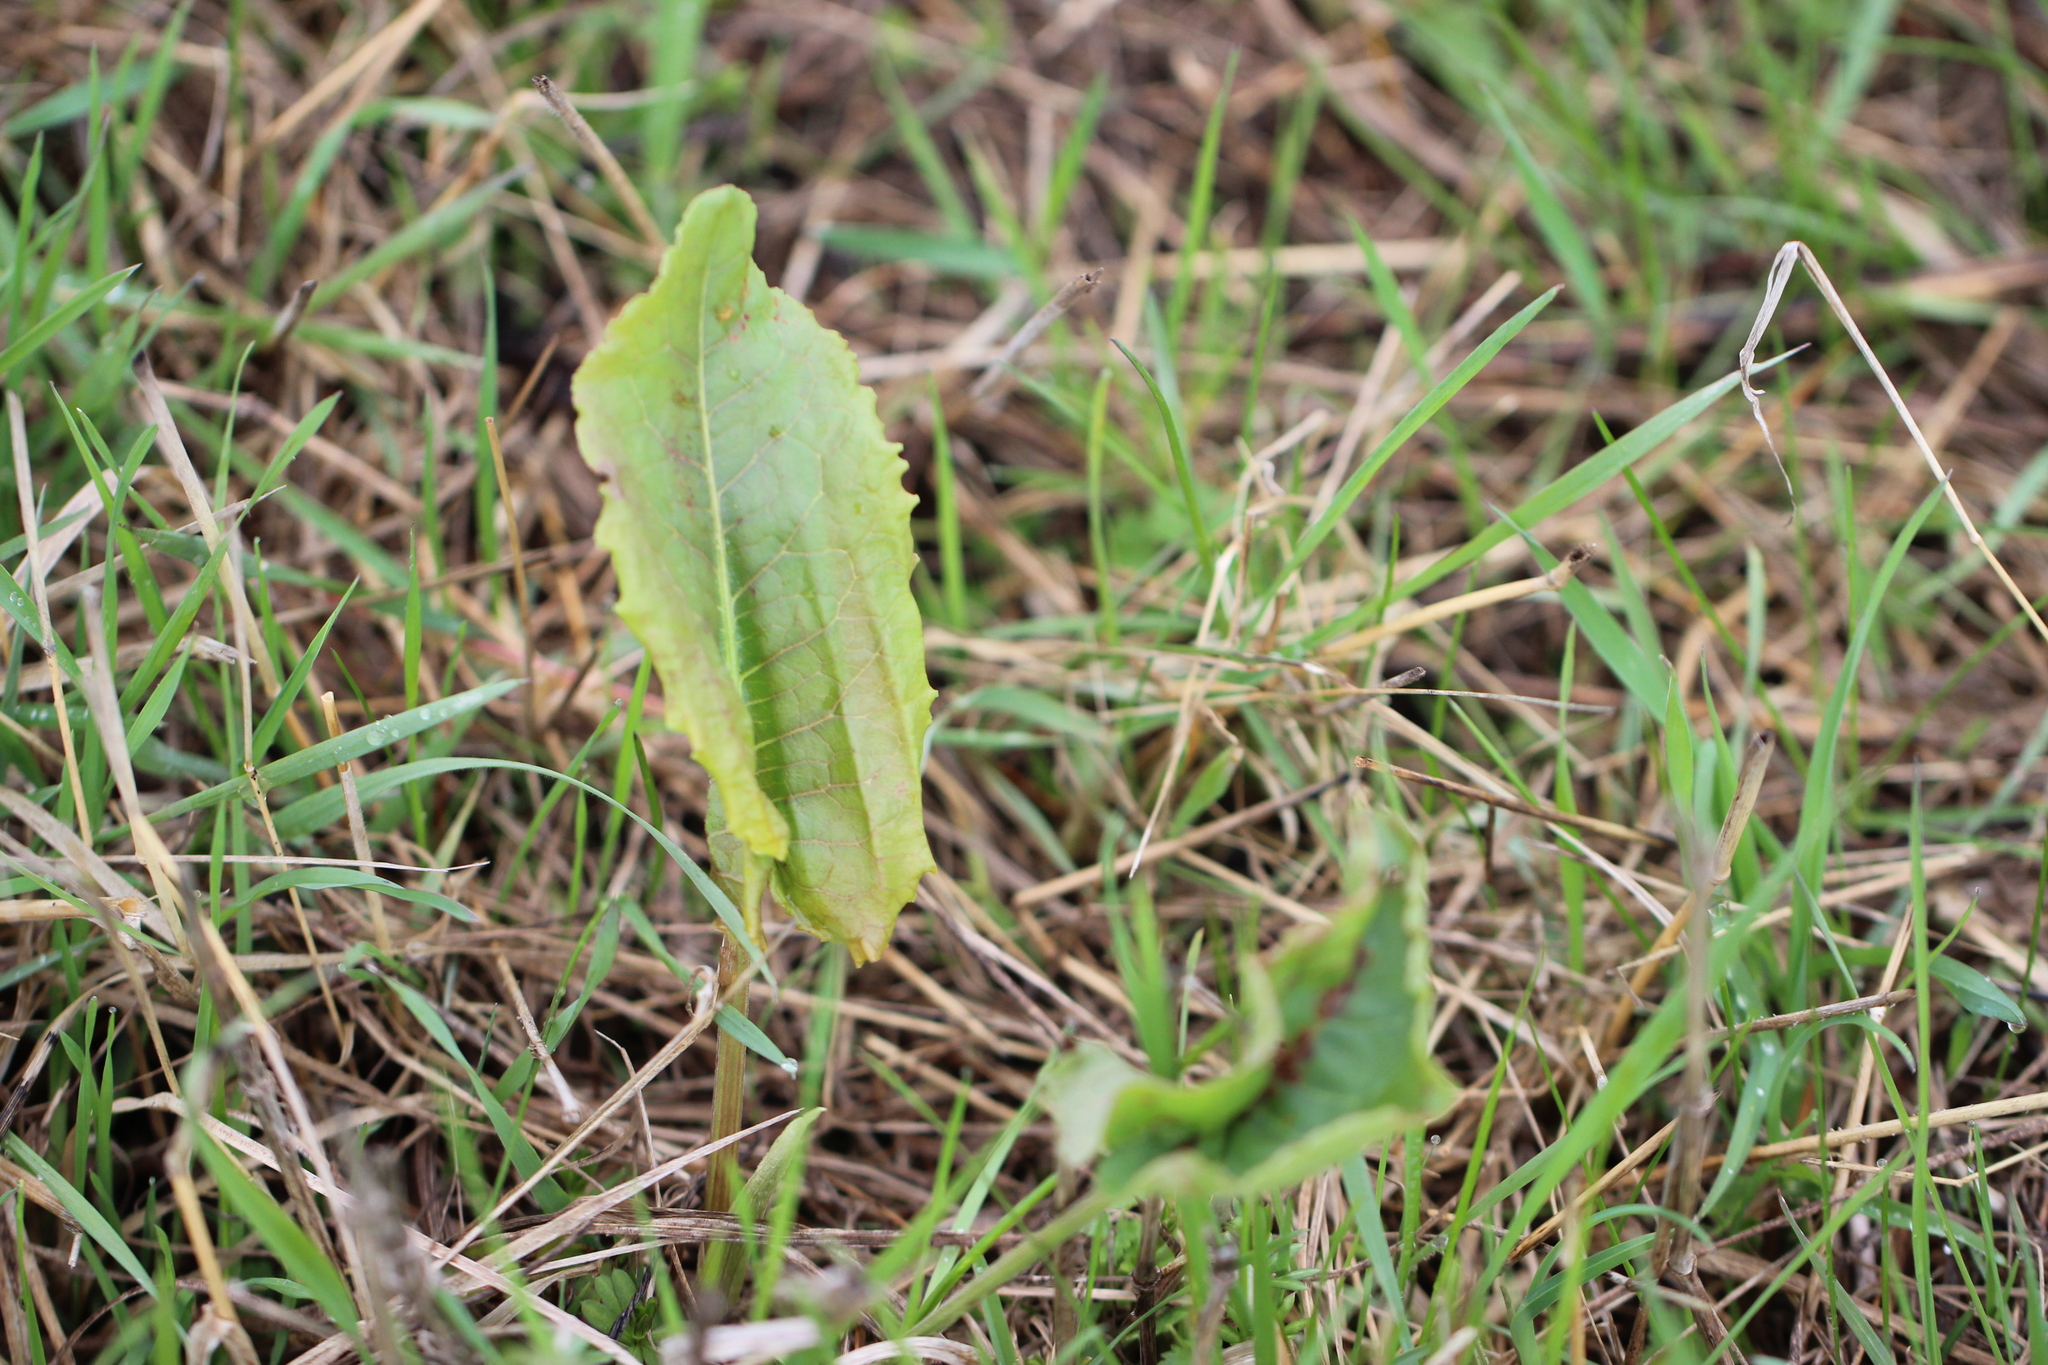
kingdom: Plantae
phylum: Tracheophyta
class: Magnoliopsida
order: Caryophyllales
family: Polygonaceae
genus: Rumex
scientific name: Rumex confertus
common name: Russian dock
